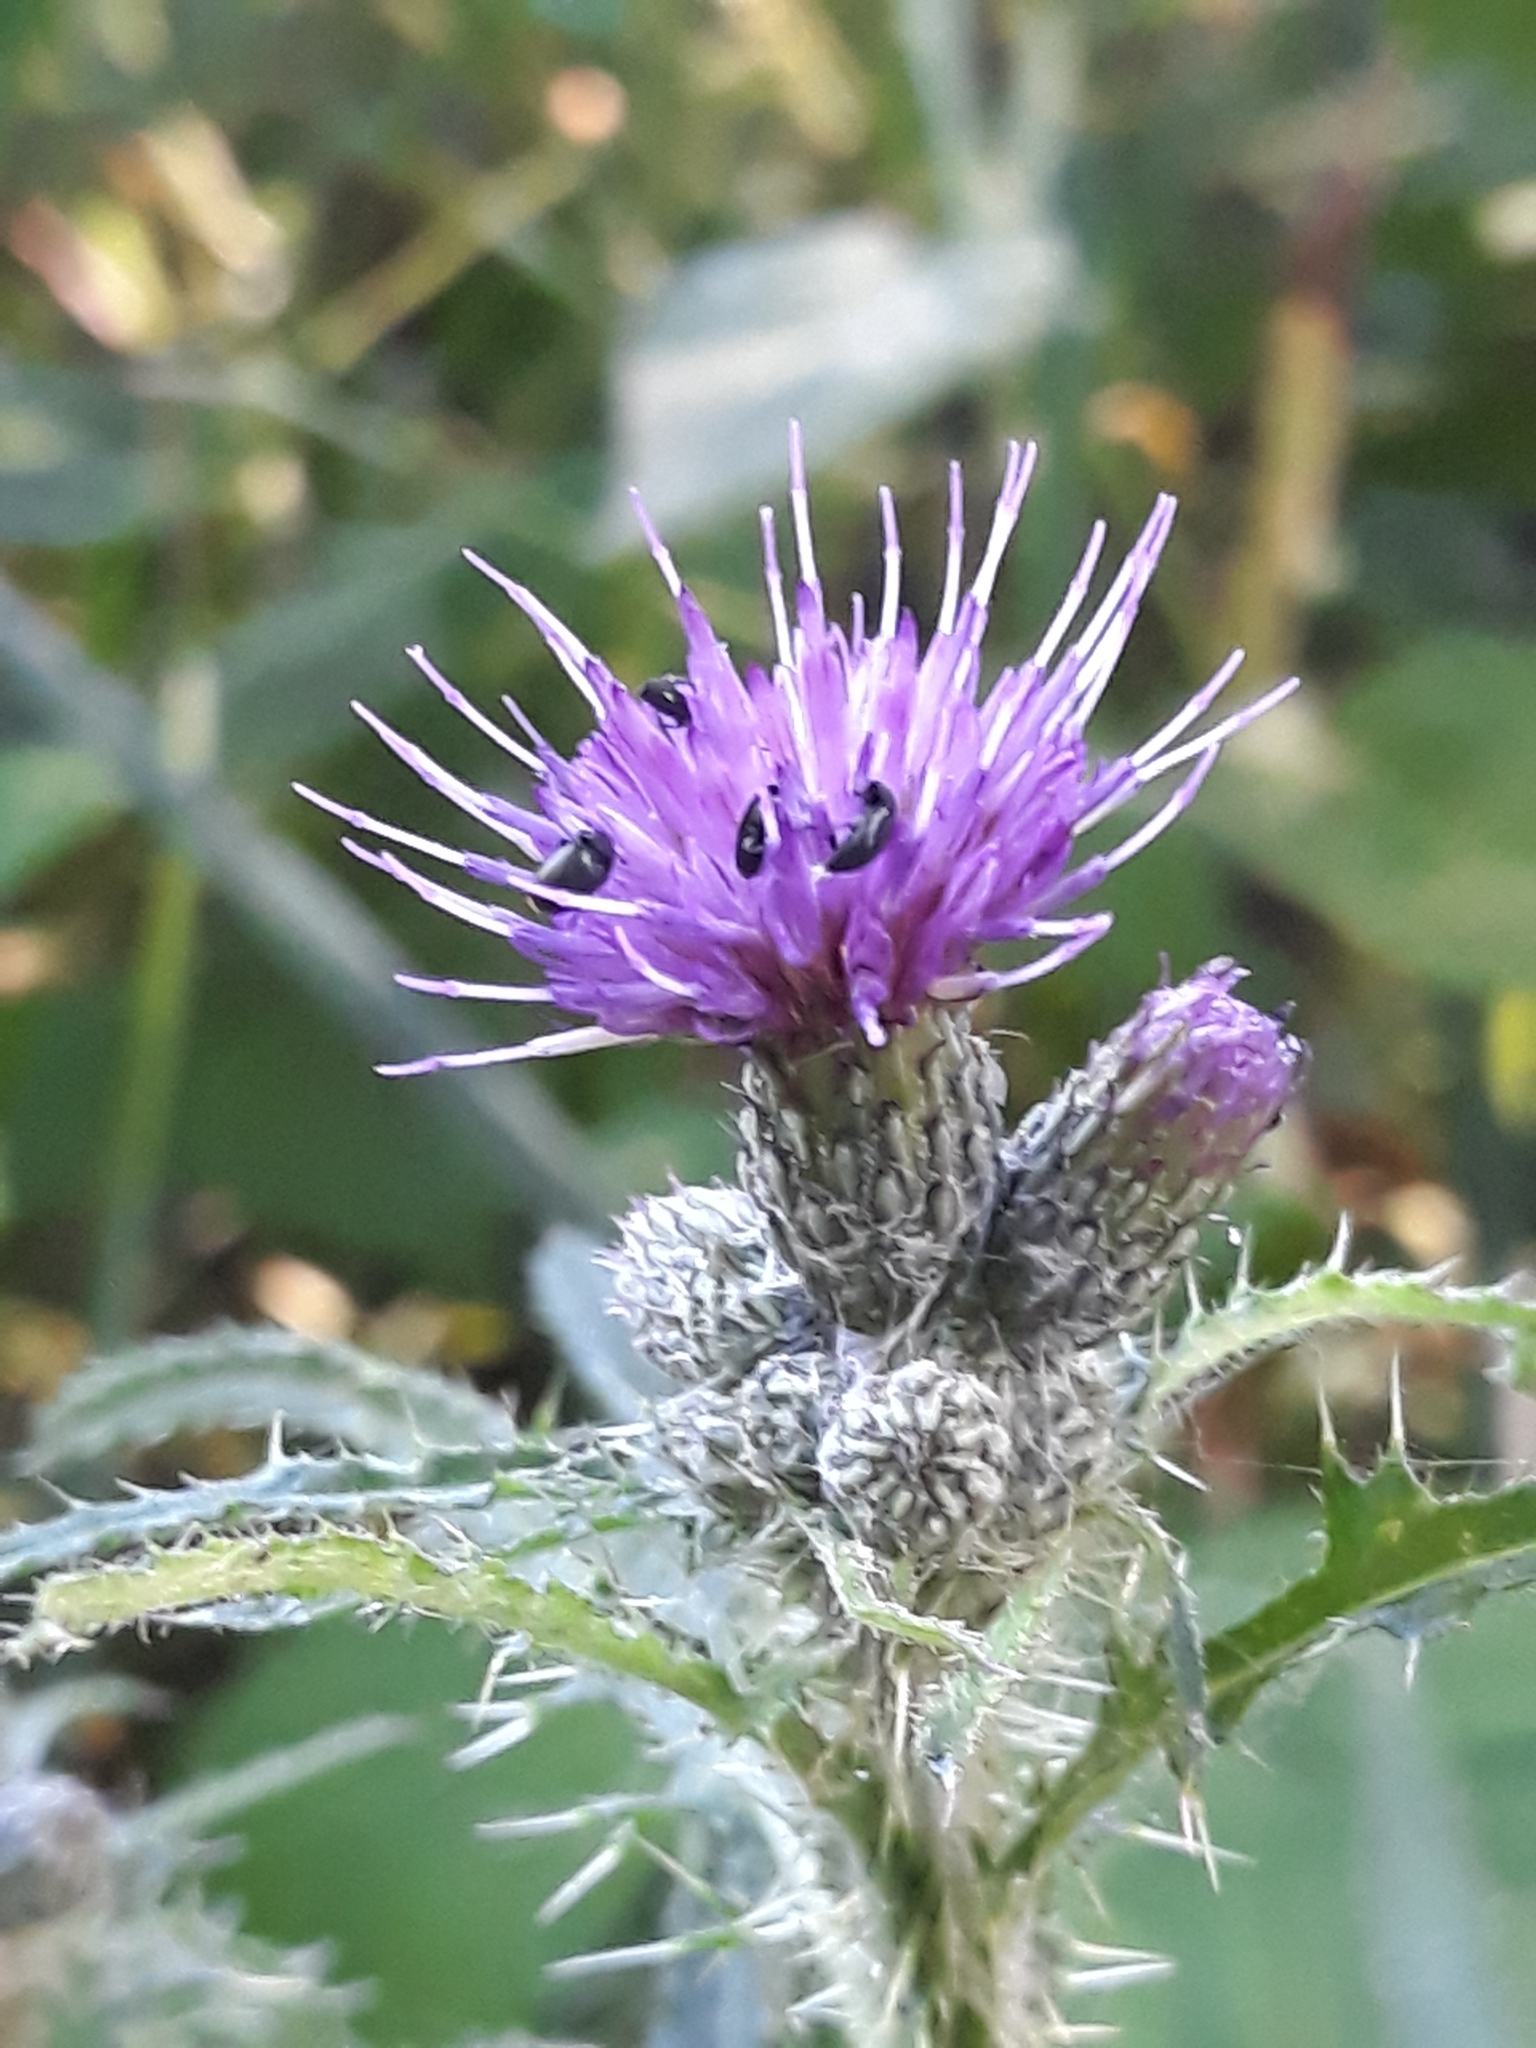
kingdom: Plantae
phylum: Tracheophyta
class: Magnoliopsida
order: Asterales
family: Asteraceae
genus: Cirsium
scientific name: Cirsium palustre
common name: Marsh thistle
